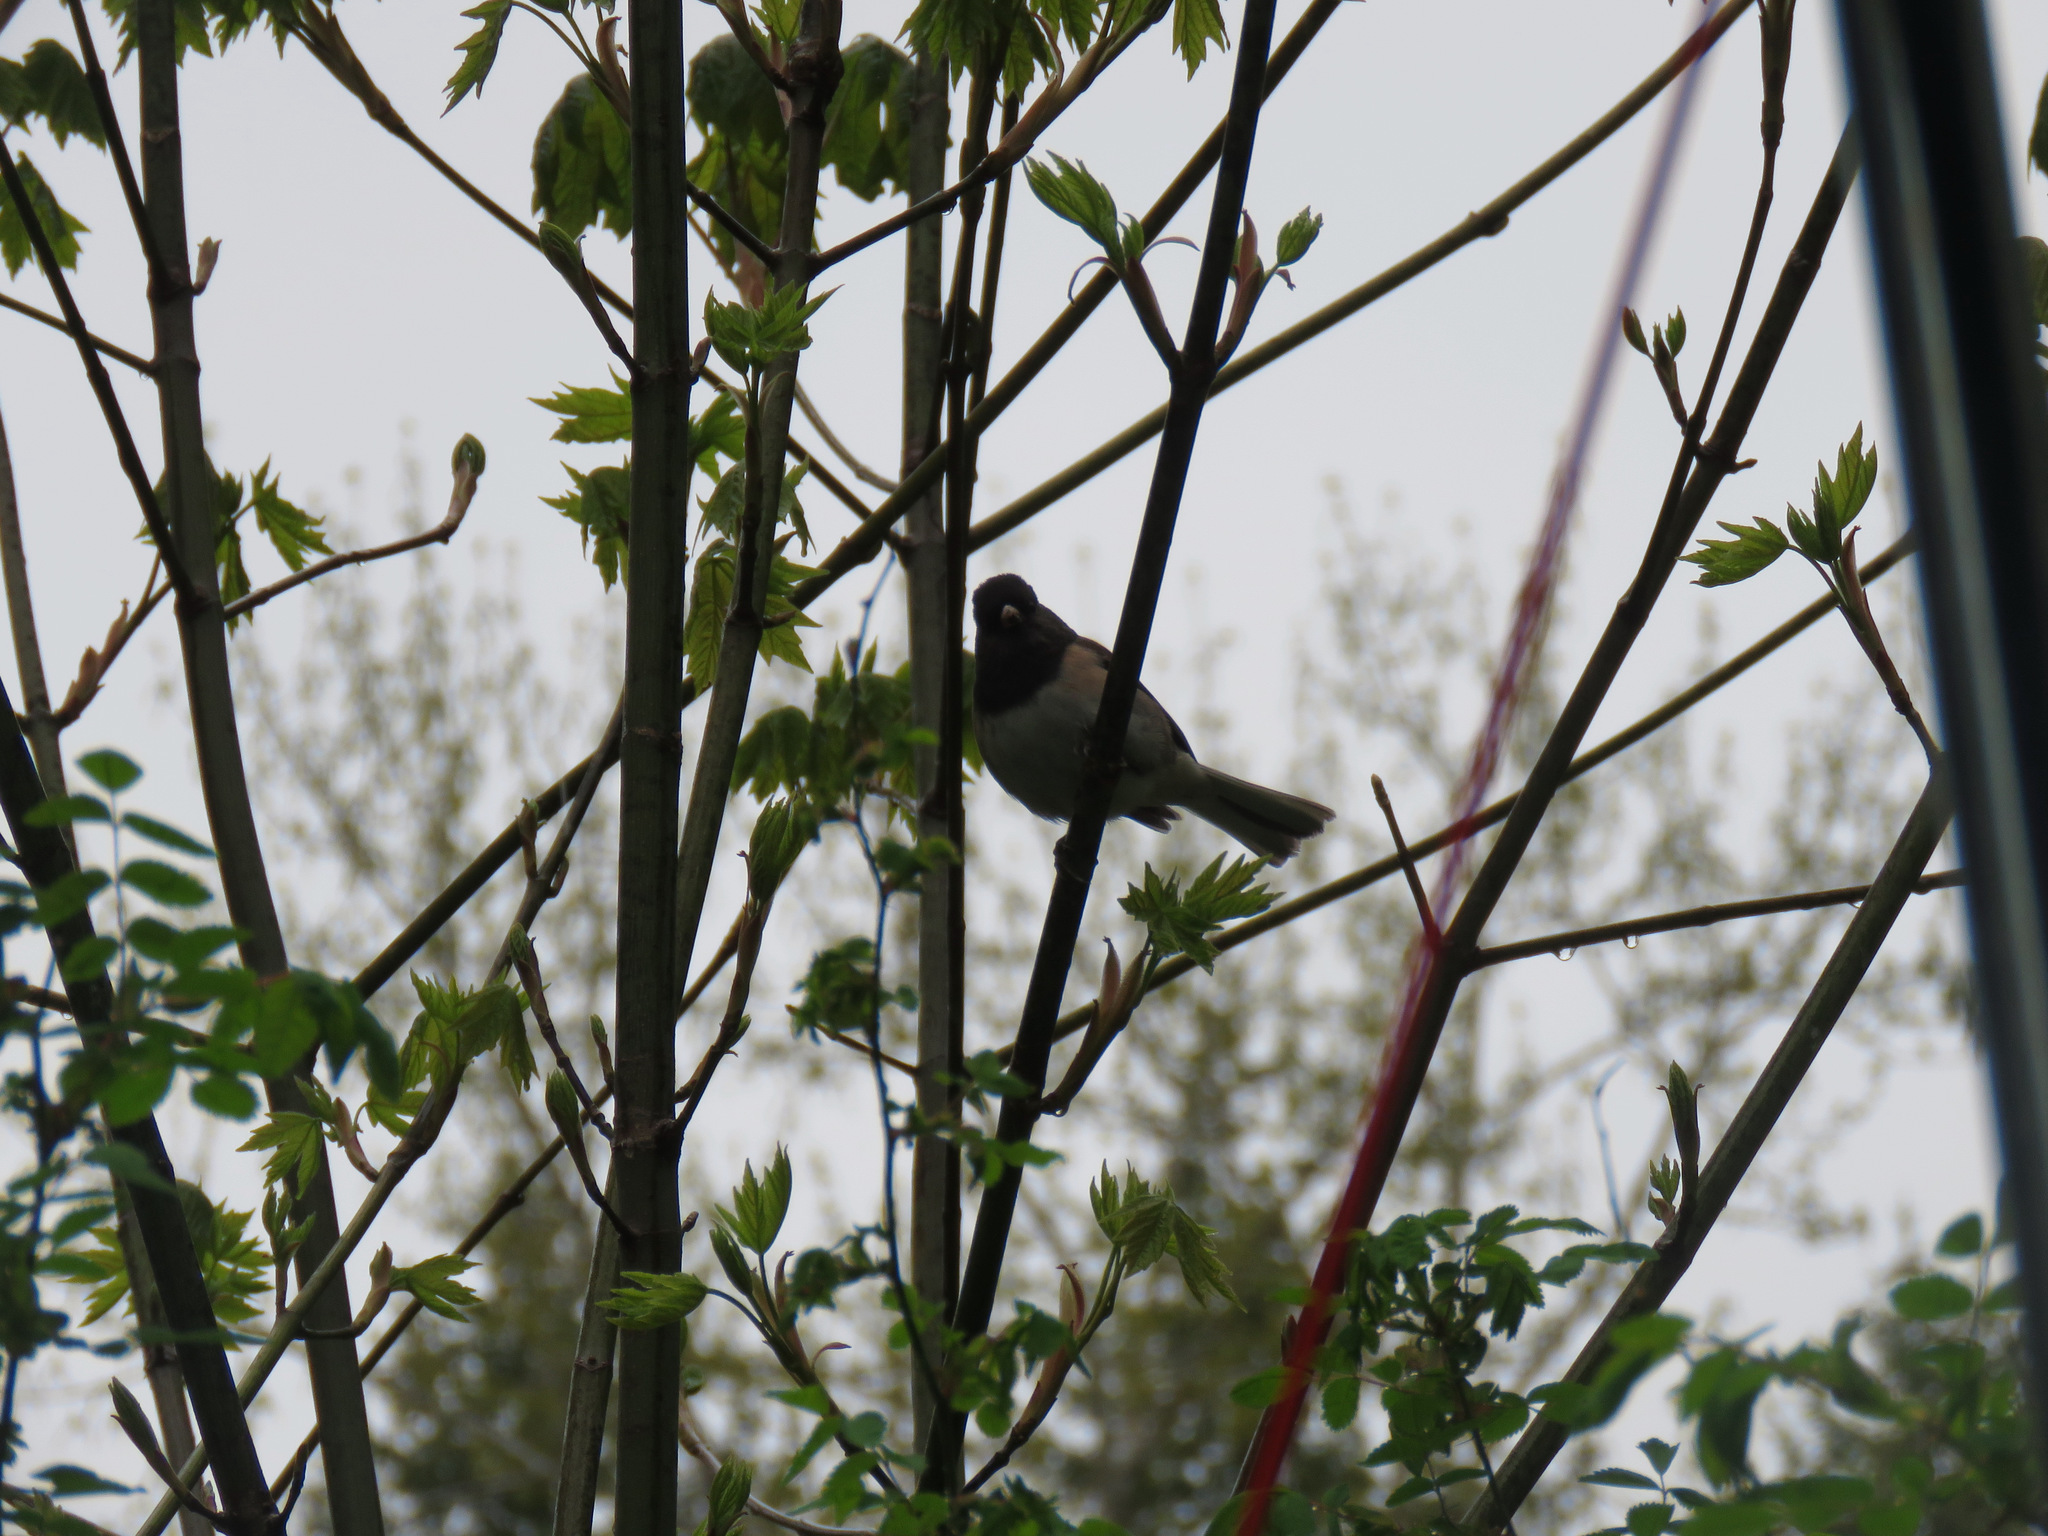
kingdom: Animalia
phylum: Chordata
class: Aves
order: Passeriformes
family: Passerellidae
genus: Junco
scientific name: Junco hyemalis
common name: Dark-eyed junco
